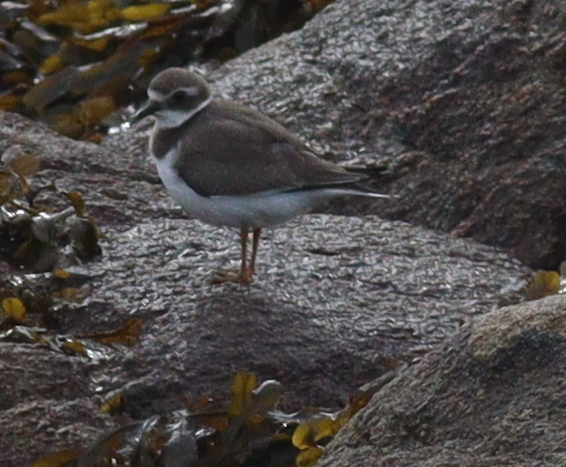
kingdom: Animalia
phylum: Chordata
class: Aves
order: Charadriiformes
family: Charadriidae
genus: Charadrius
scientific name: Charadrius hiaticula
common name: Common ringed plover
